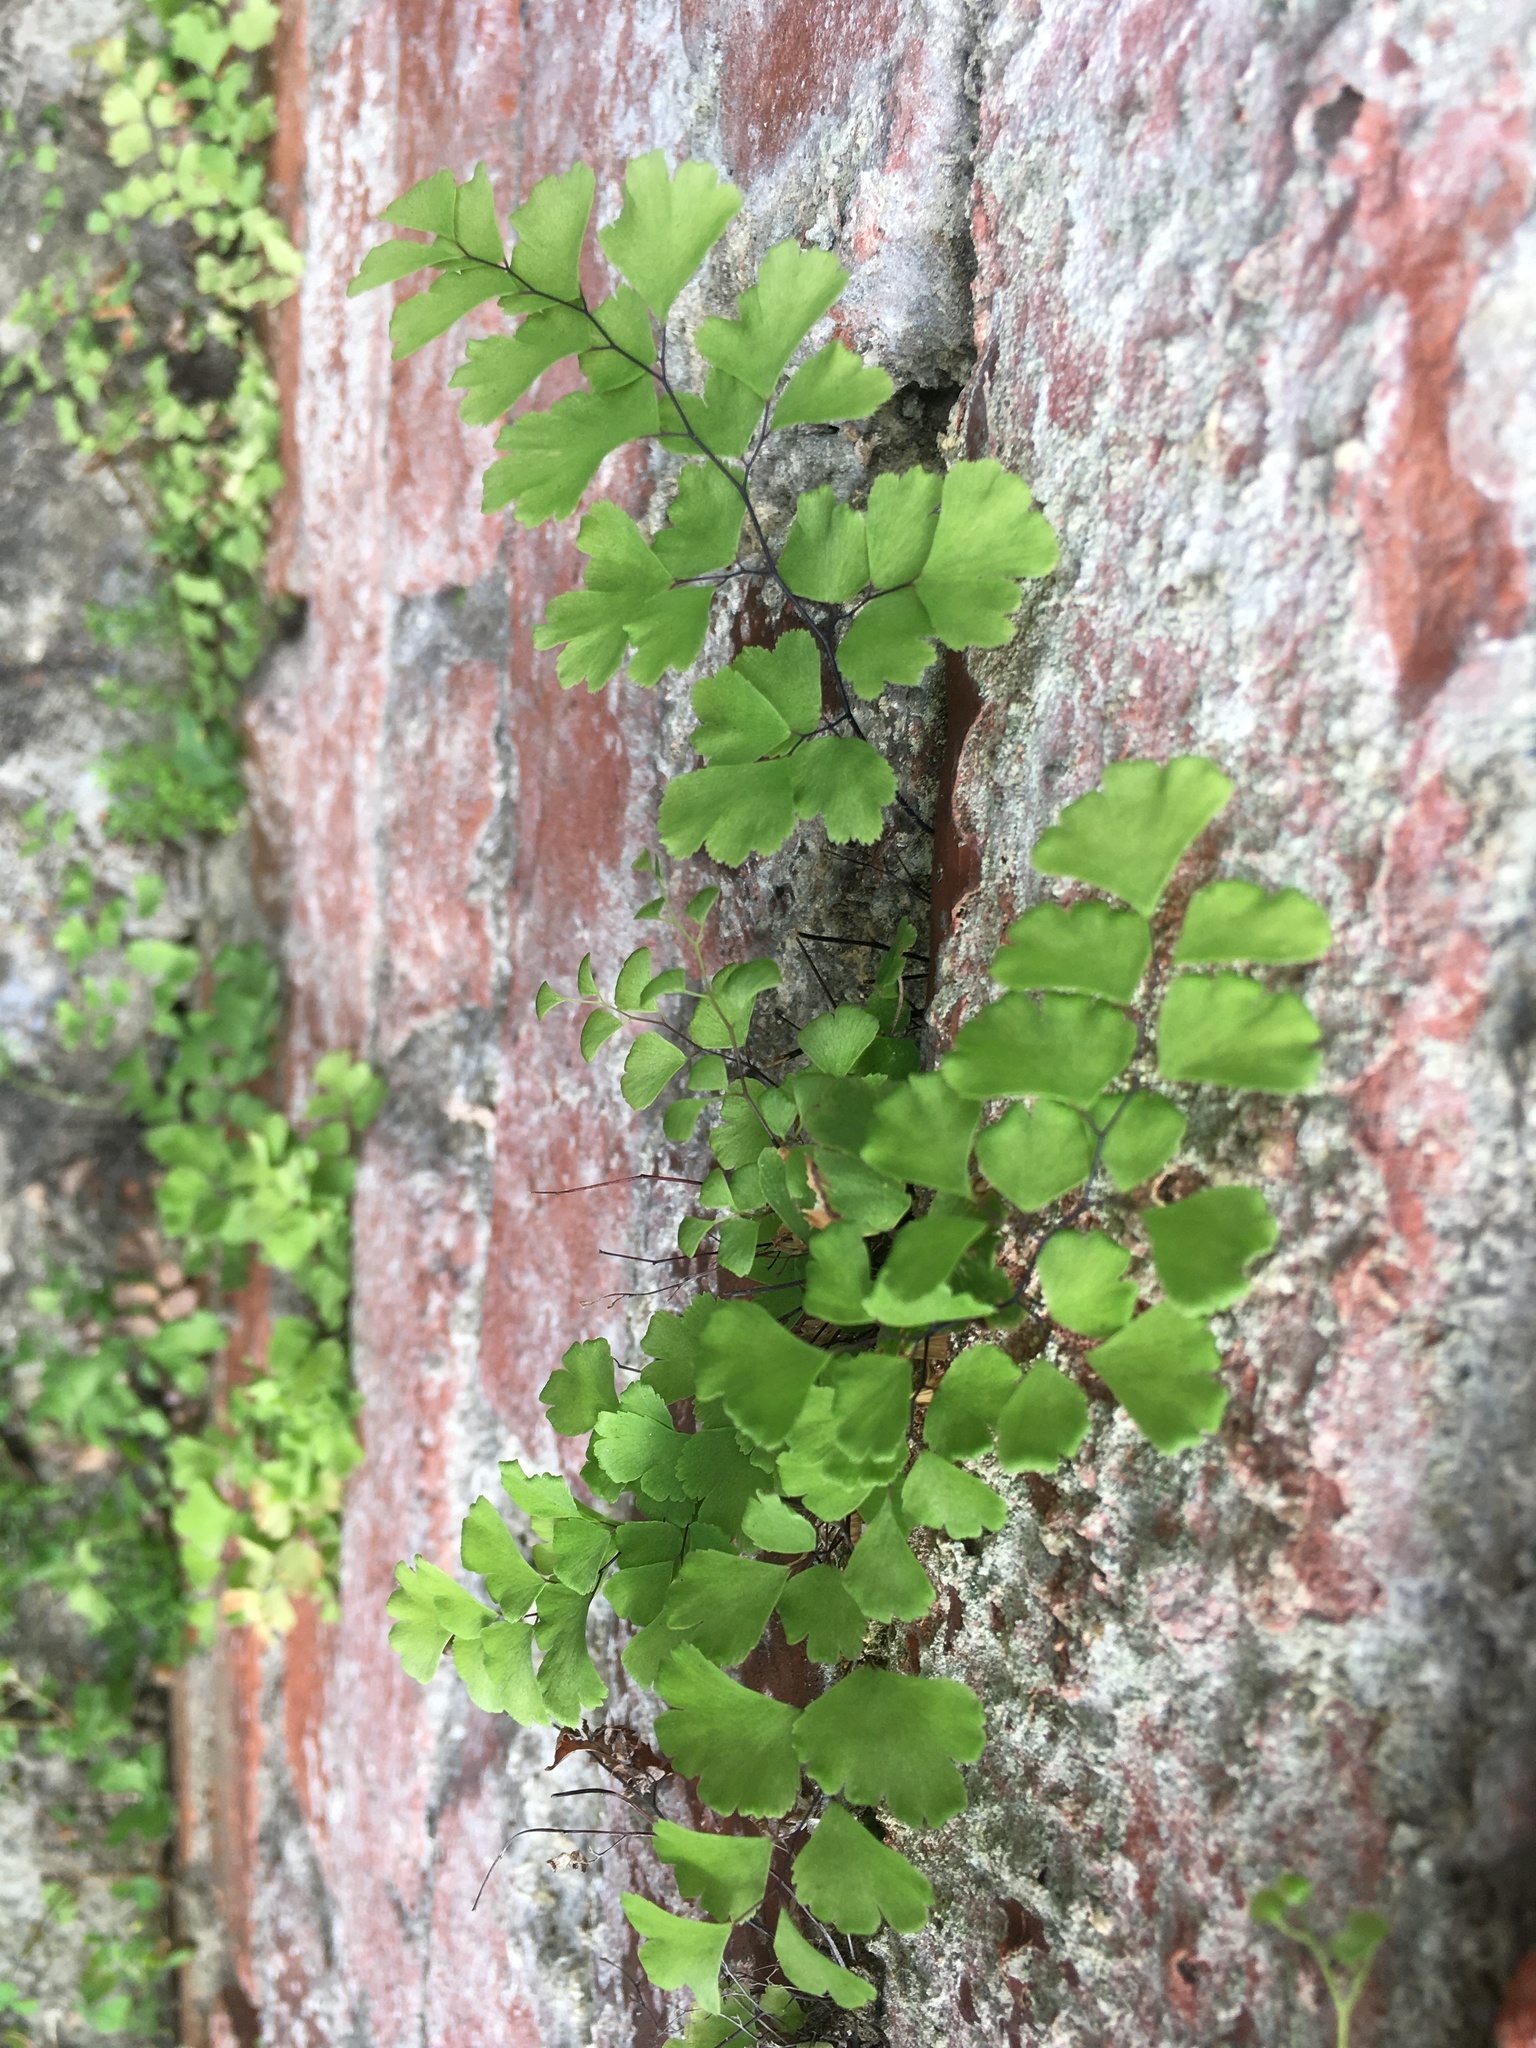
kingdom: Plantae
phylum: Tracheophyta
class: Polypodiopsida
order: Polypodiales
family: Pteridaceae
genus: Adiantum
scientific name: Adiantum capillus-veneris
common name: Maidenhair fern
